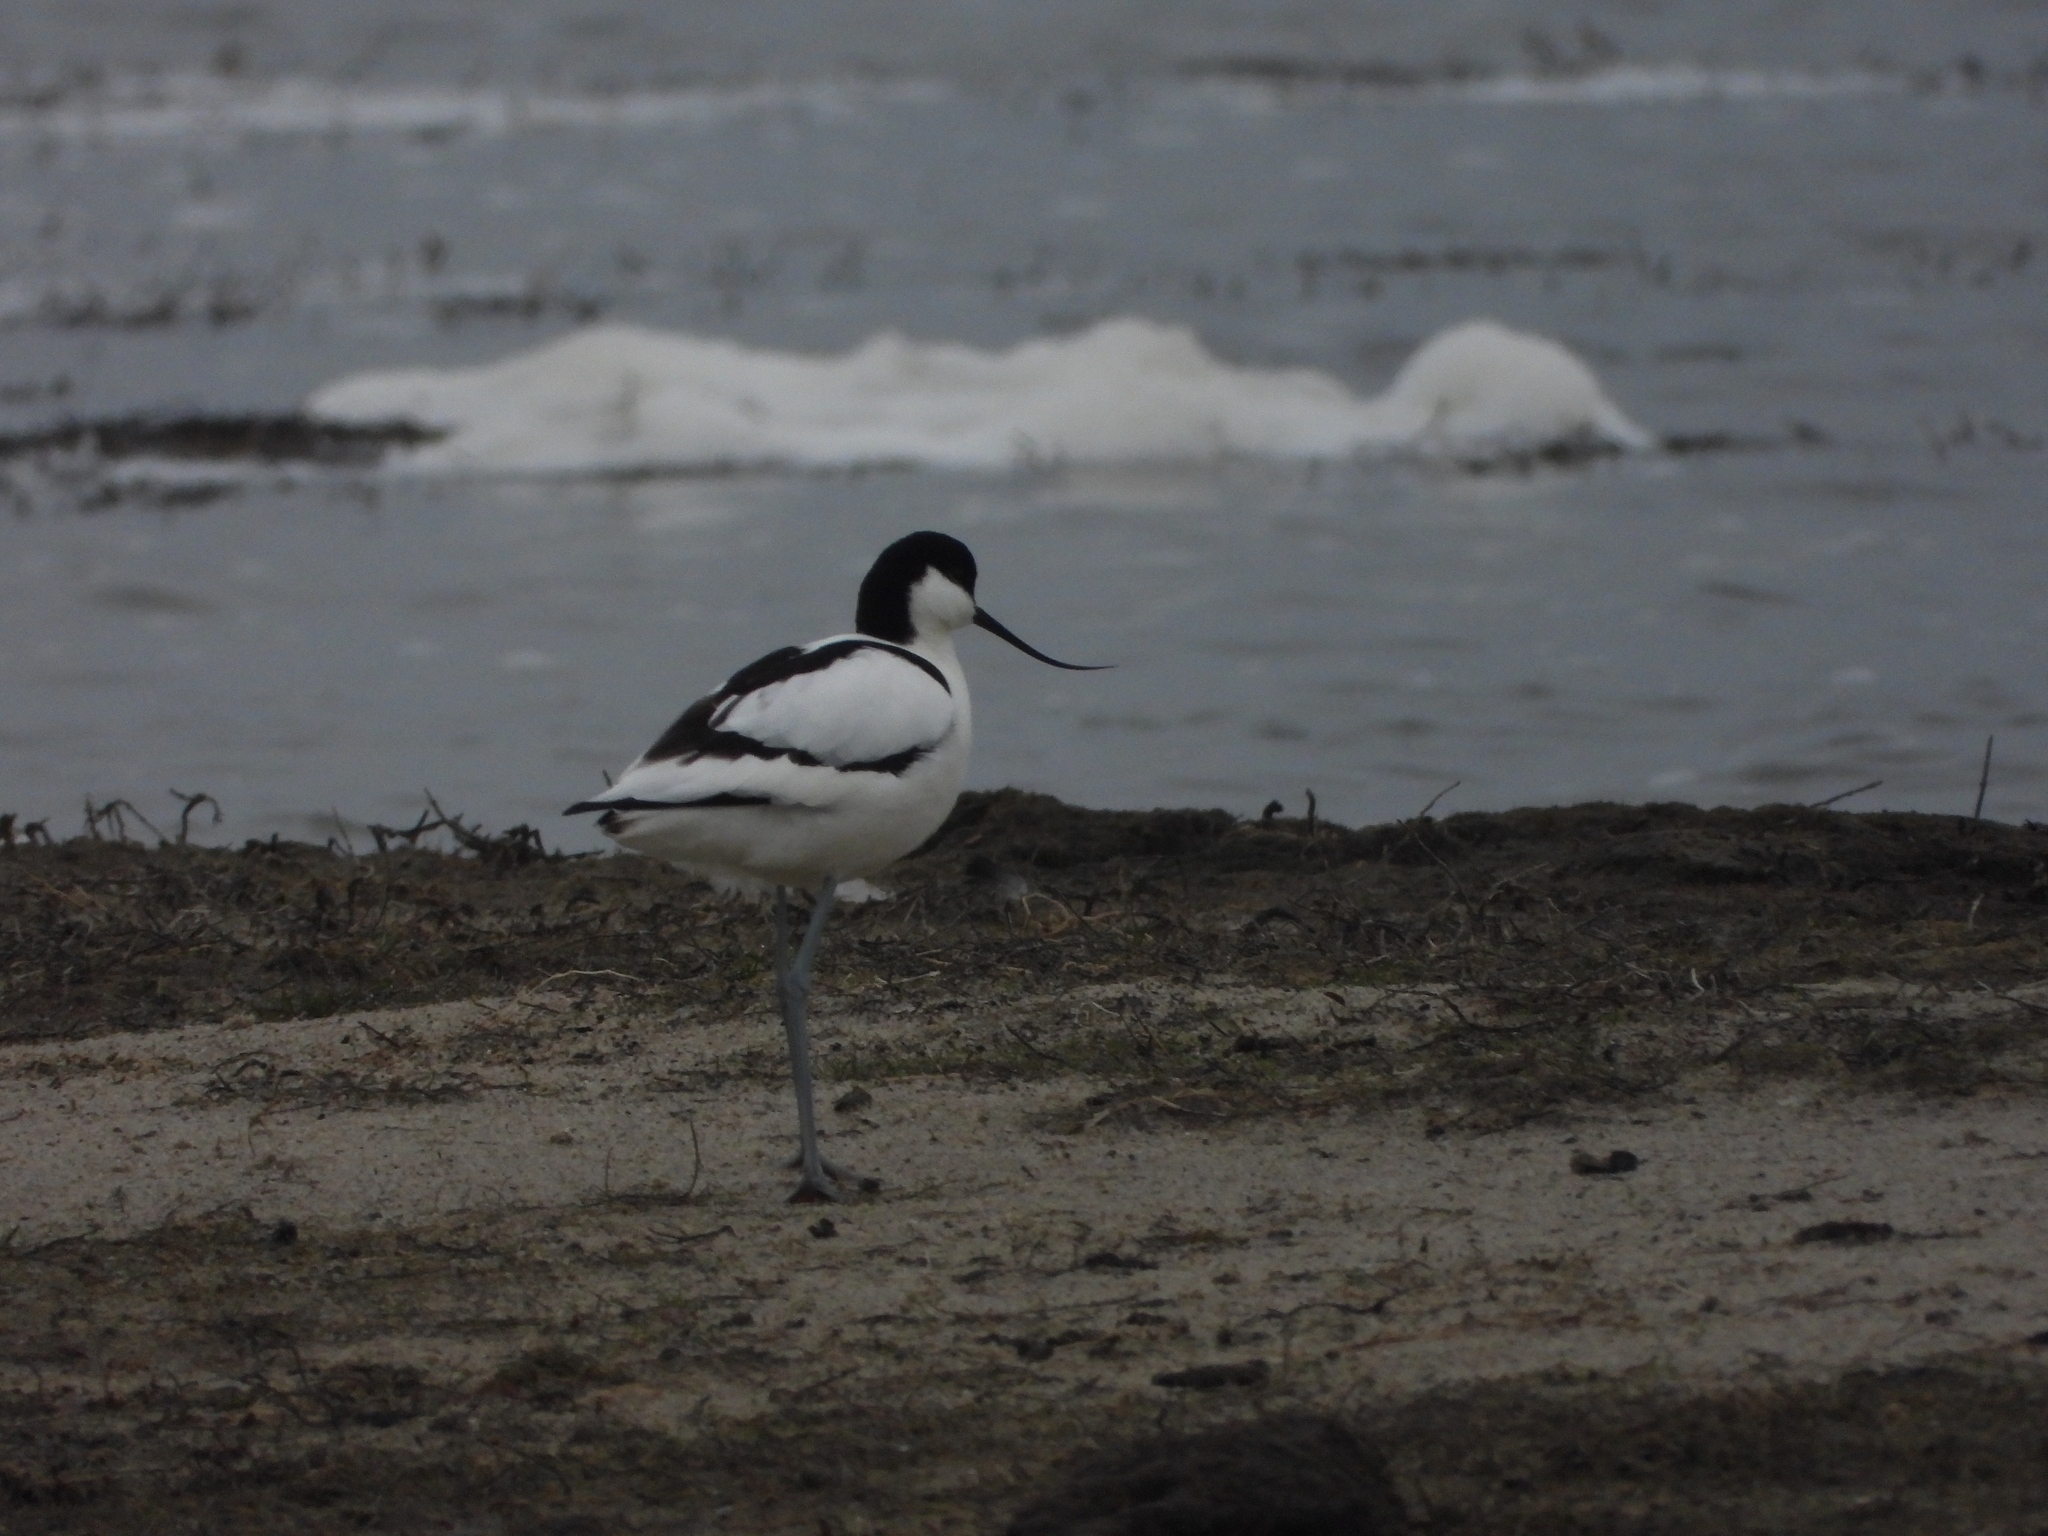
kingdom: Animalia
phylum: Chordata
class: Aves
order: Charadriiformes
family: Recurvirostridae
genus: Recurvirostra
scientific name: Recurvirostra avosetta
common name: Pied avocet
